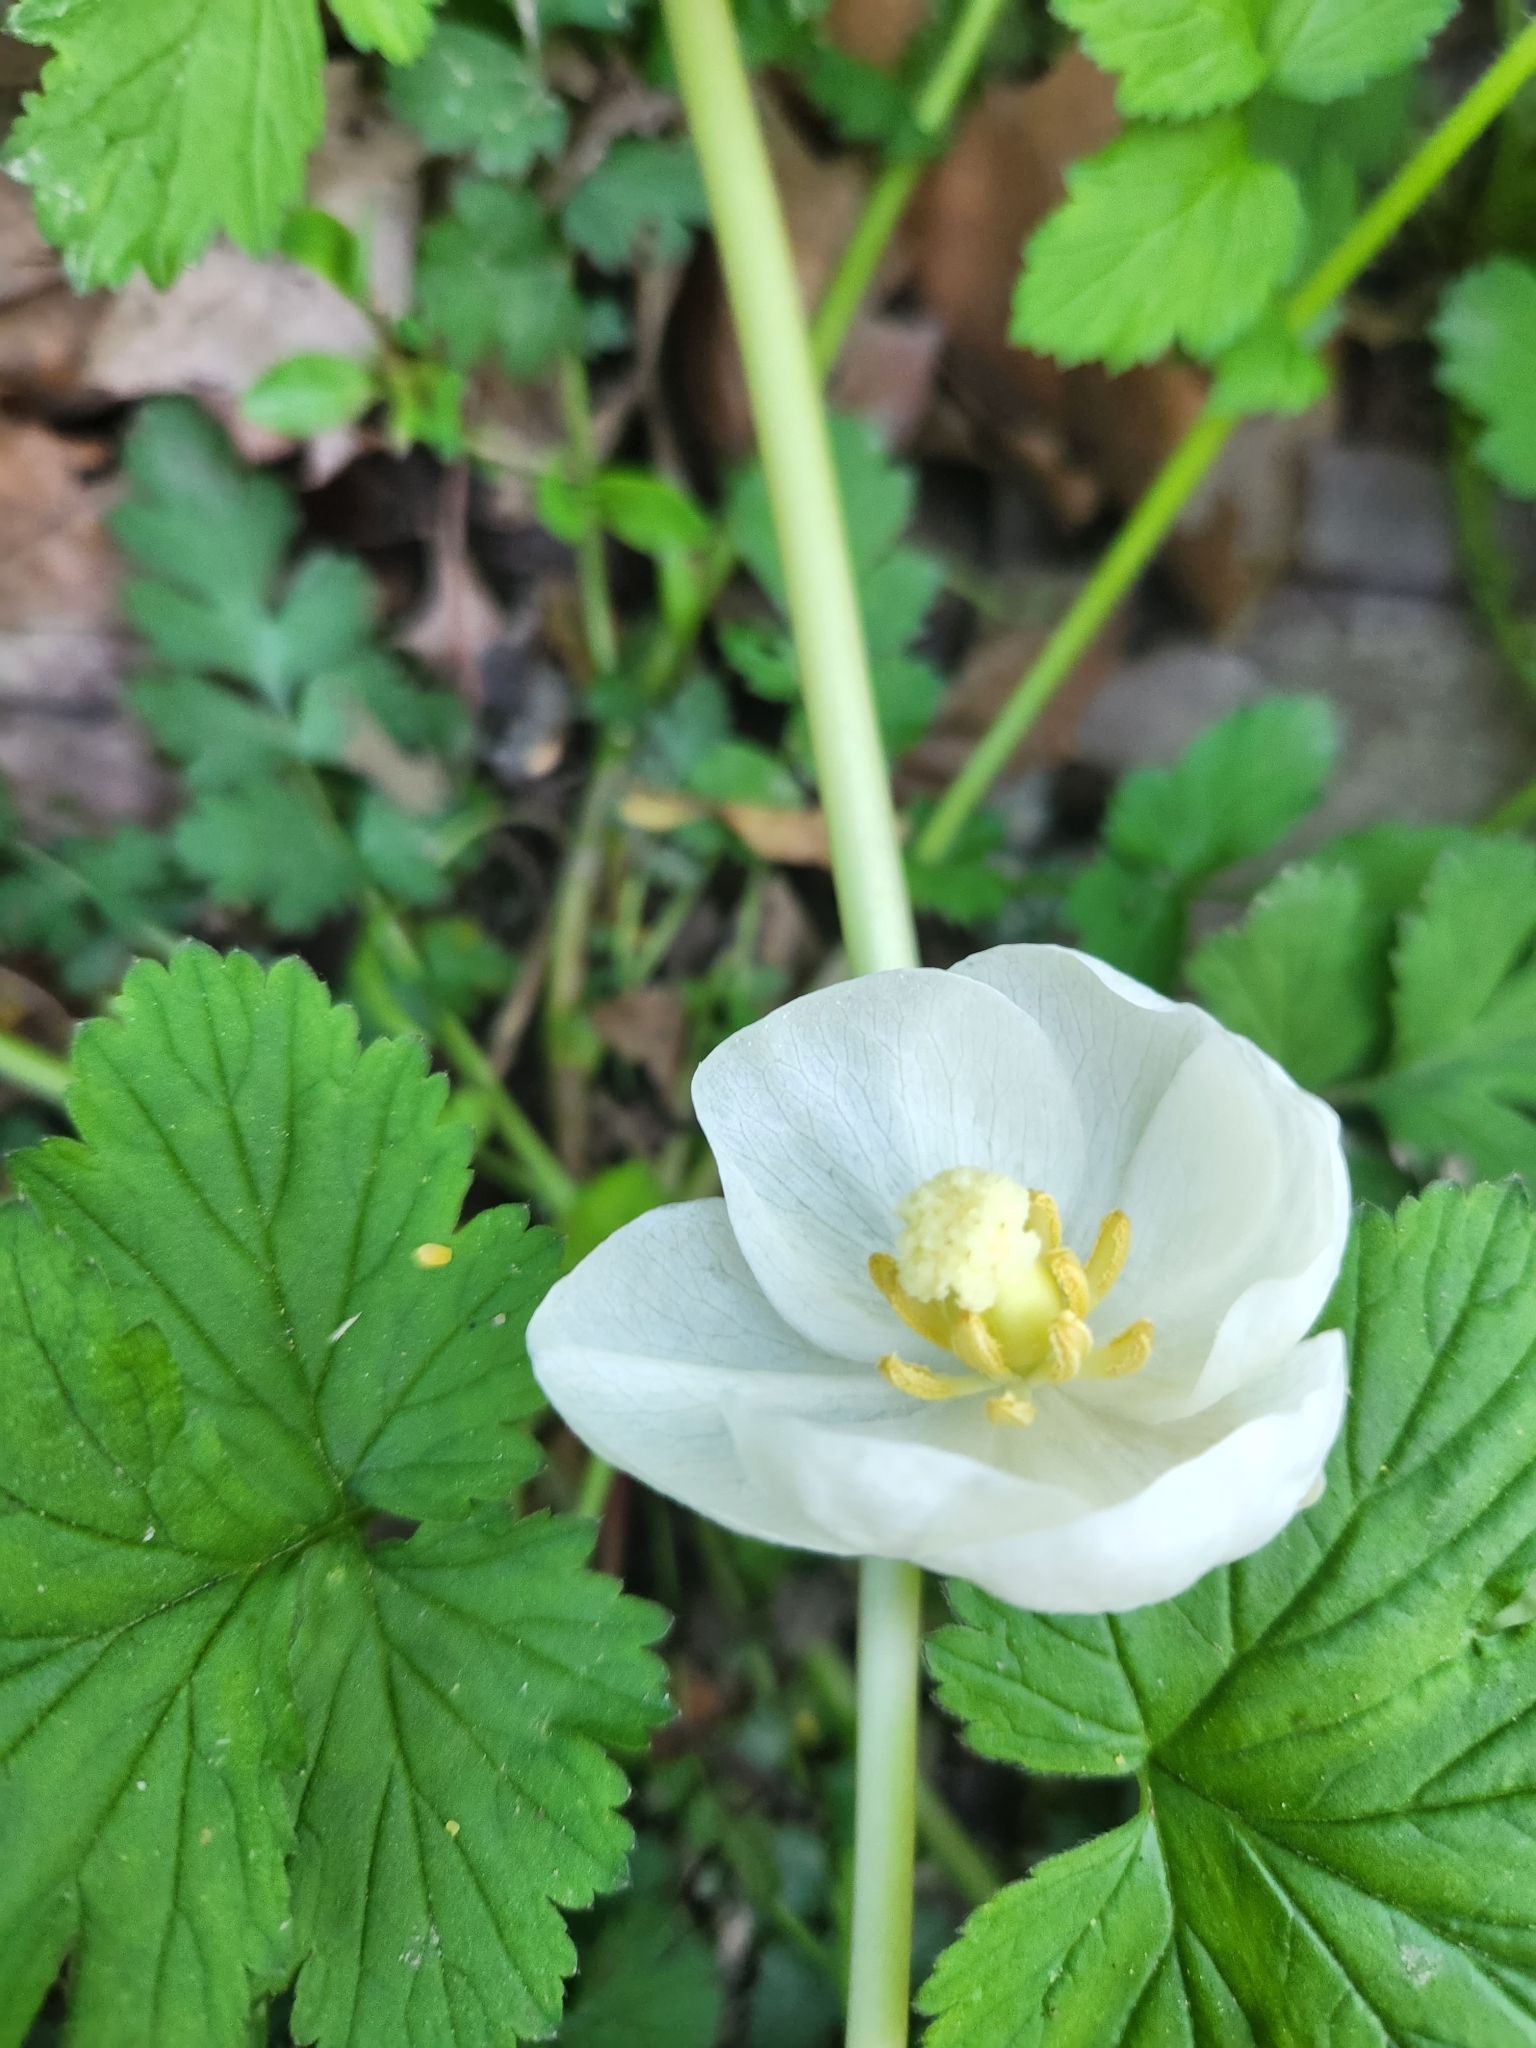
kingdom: Plantae
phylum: Tracheophyta
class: Magnoliopsida
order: Ranunculales
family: Berberidaceae
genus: Podophyllum
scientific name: Podophyllum peltatum
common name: Wild mandrake
